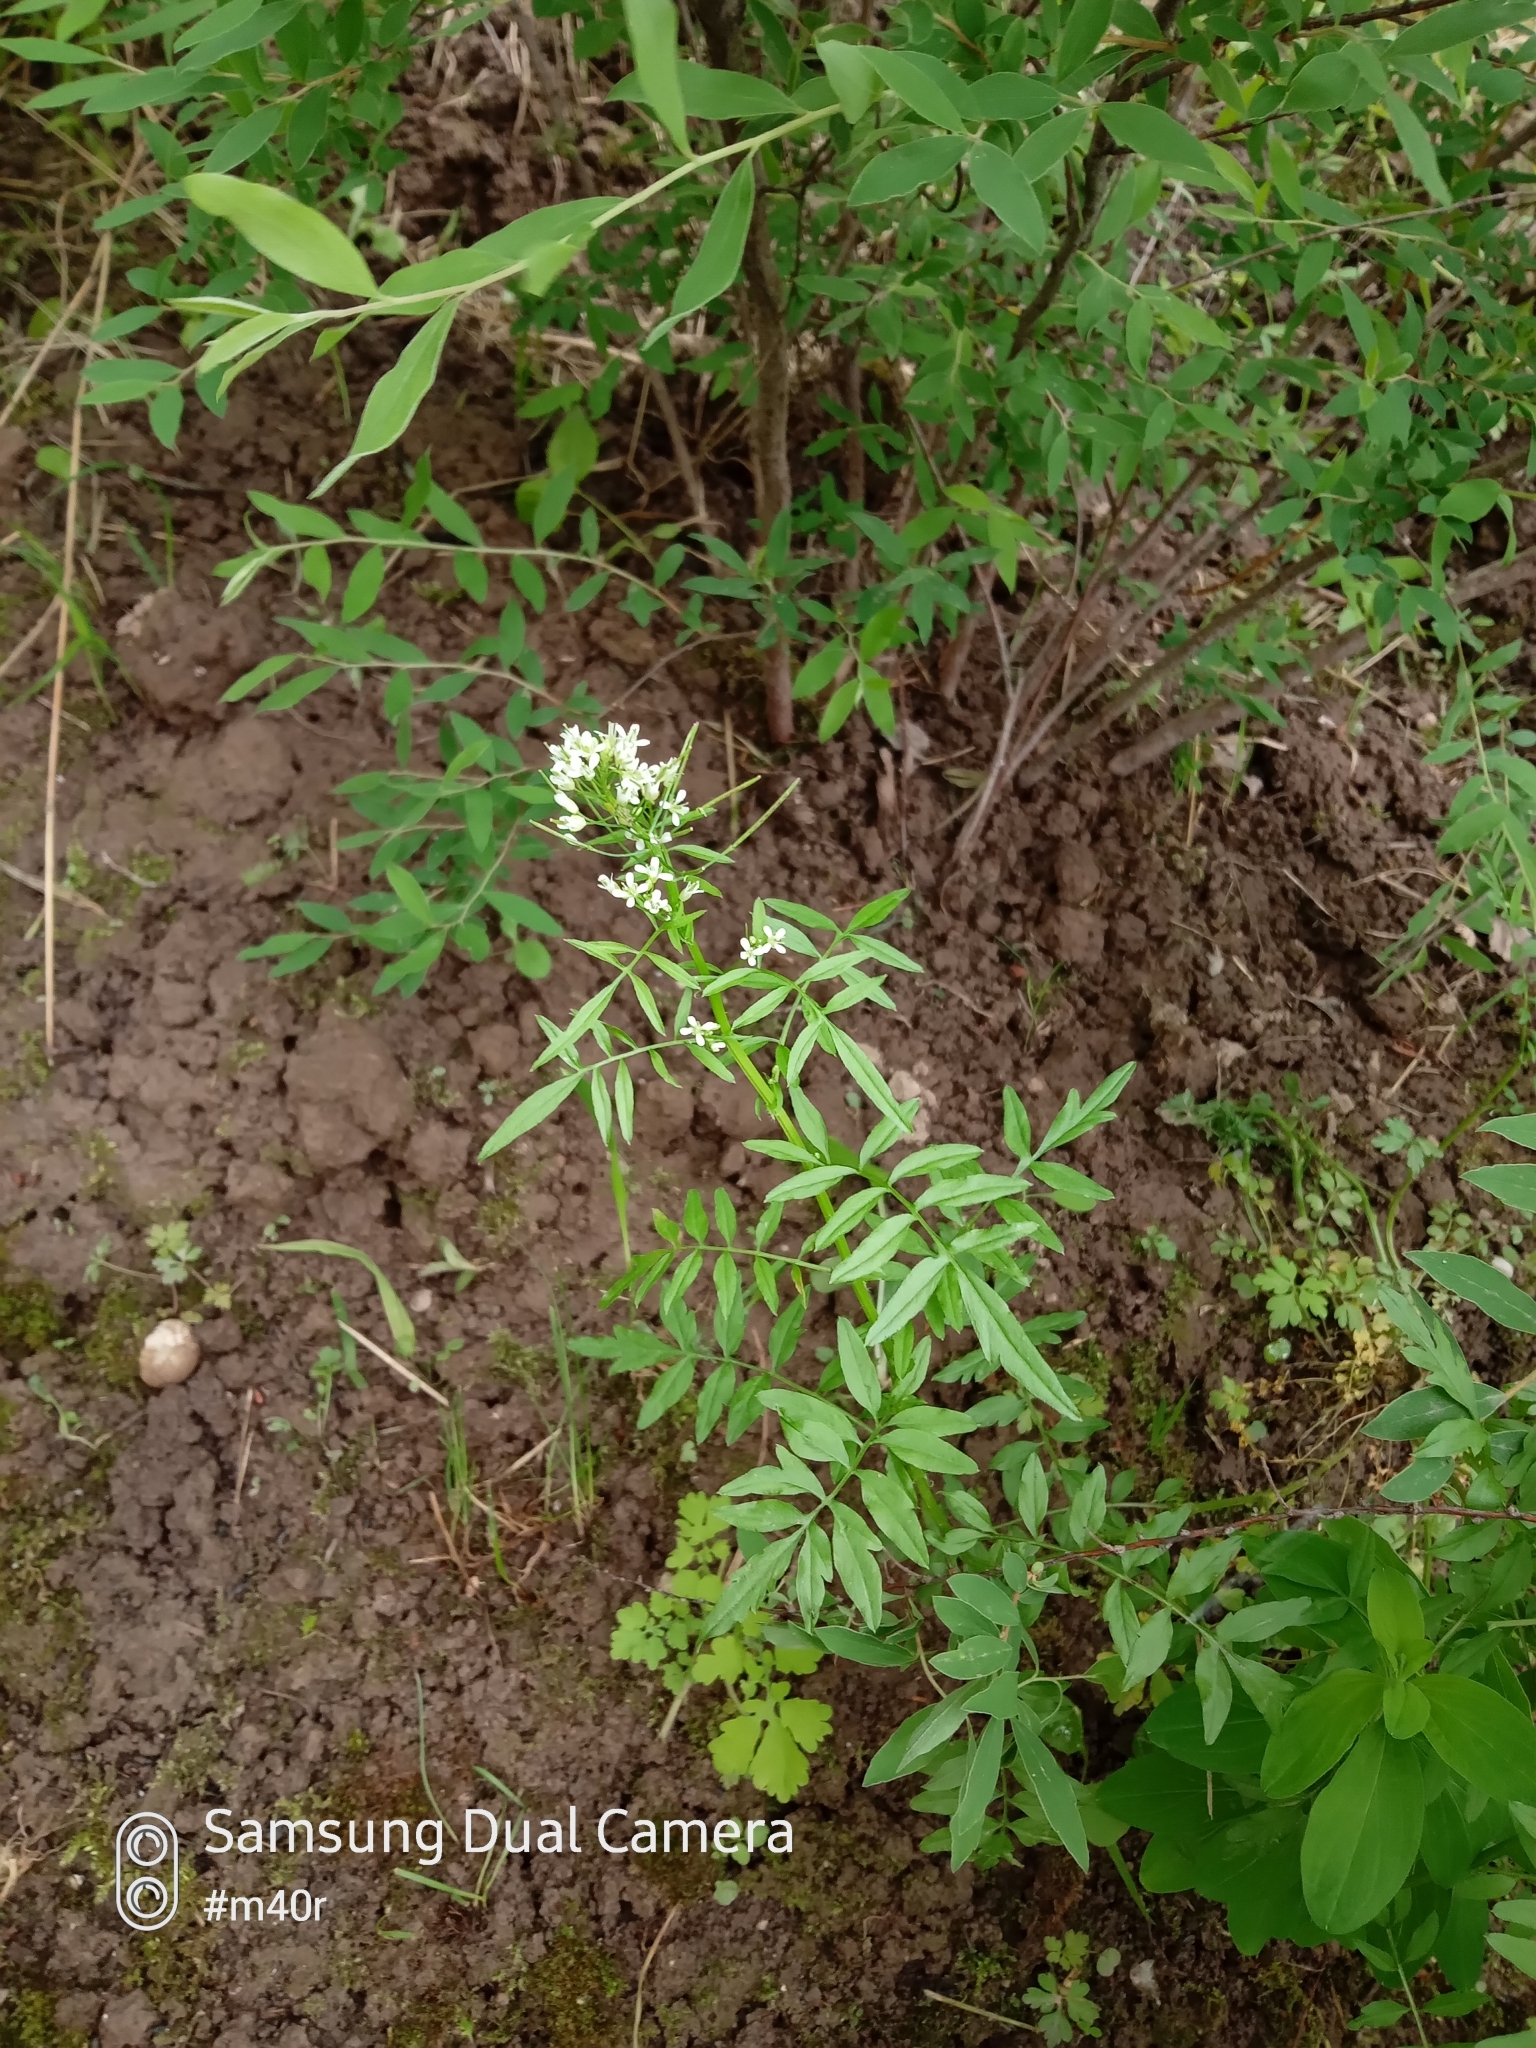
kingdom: Plantae
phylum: Tracheophyta
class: Magnoliopsida
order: Brassicales
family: Brassicaceae
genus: Cardamine
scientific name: Cardamine impatiens
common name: Narrow-leaved bitter-cress
